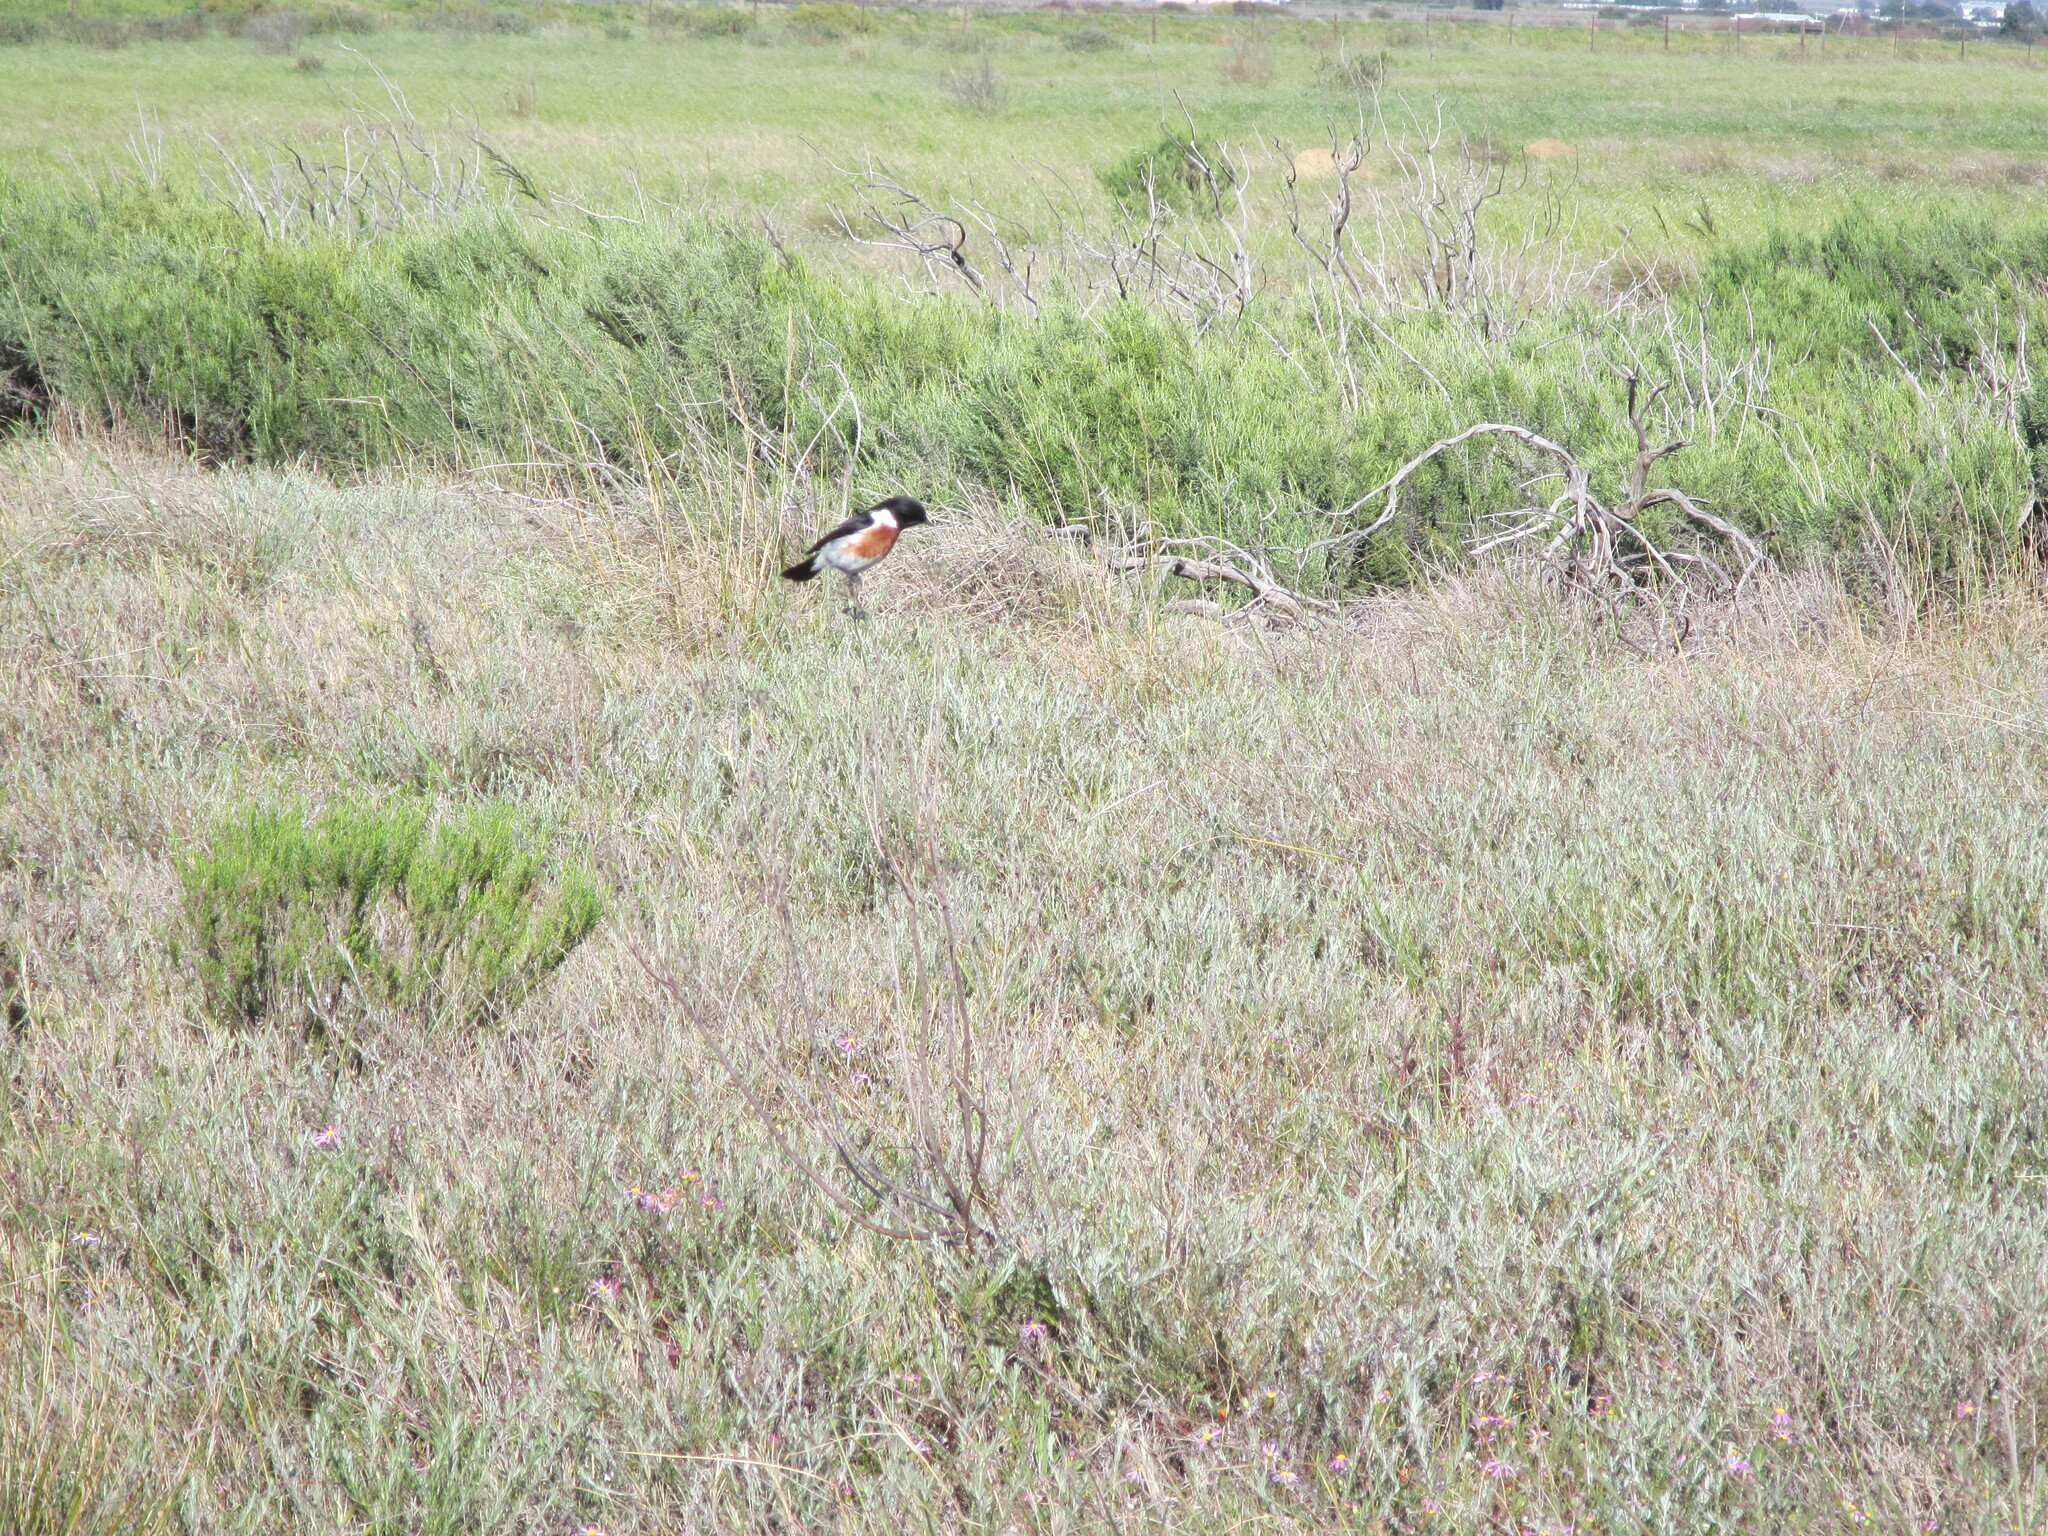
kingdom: Animalia
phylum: Chordata
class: Aves
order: Passeriformes
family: Muscicapidae
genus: Saxicola
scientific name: Saxicola torquatus
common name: African stonechat
